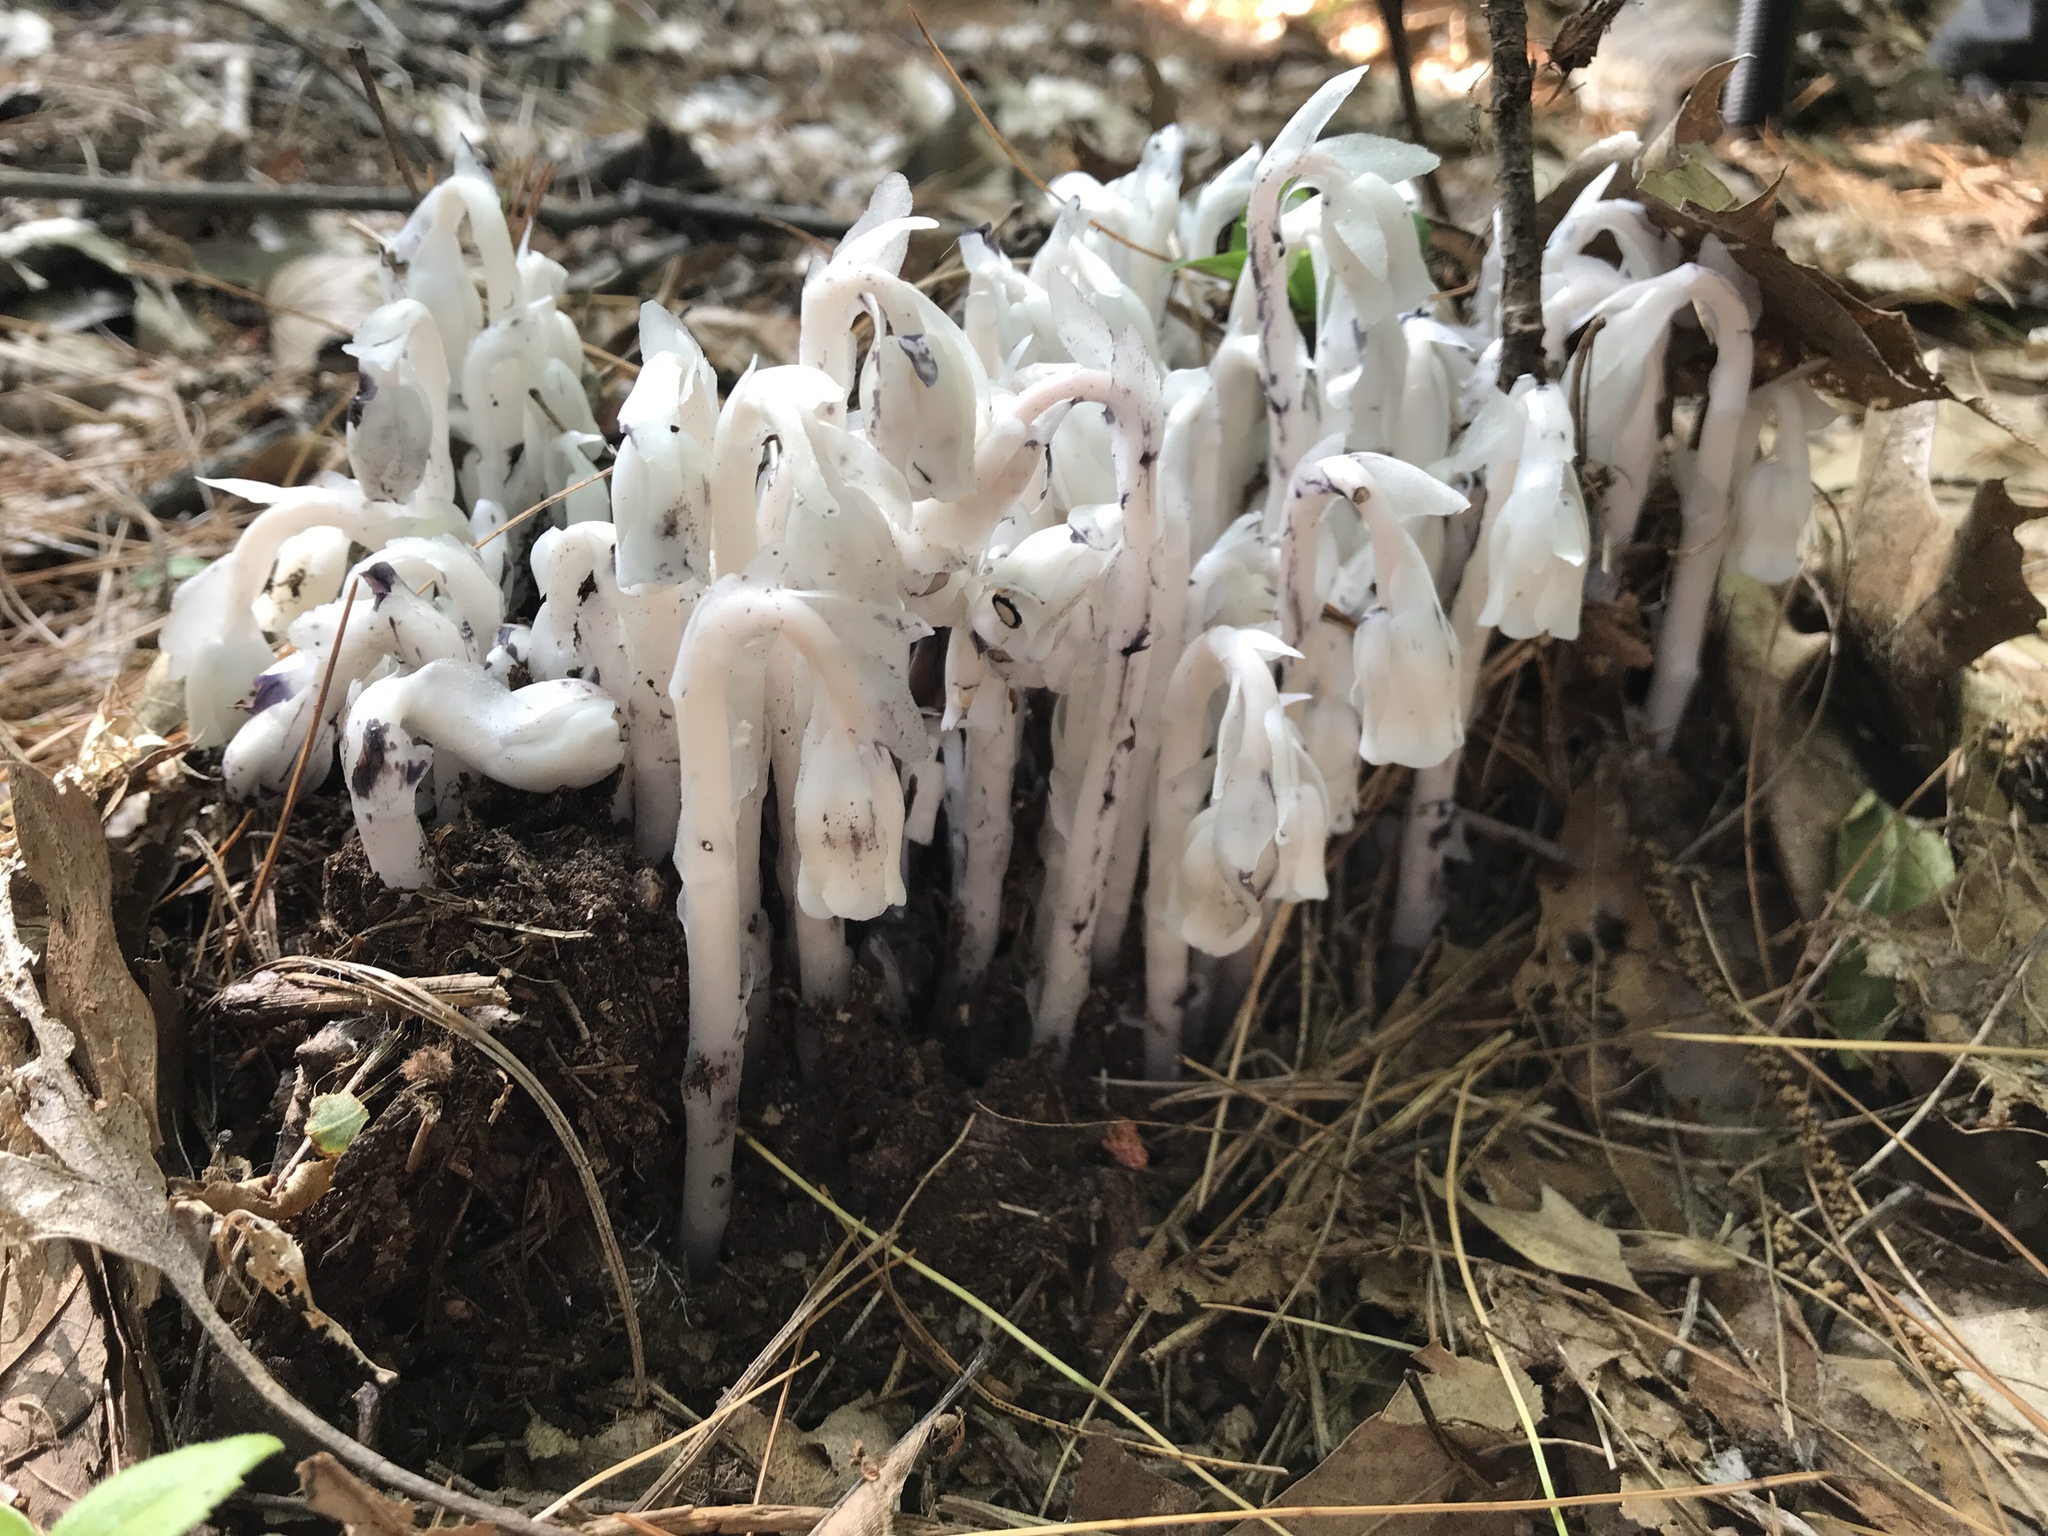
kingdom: Plantae
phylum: Tracheophyta
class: Magnoliopsida
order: Ericales
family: Ericaceae
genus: Monotropa
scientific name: Monotropa uniflora
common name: Convulsion root
